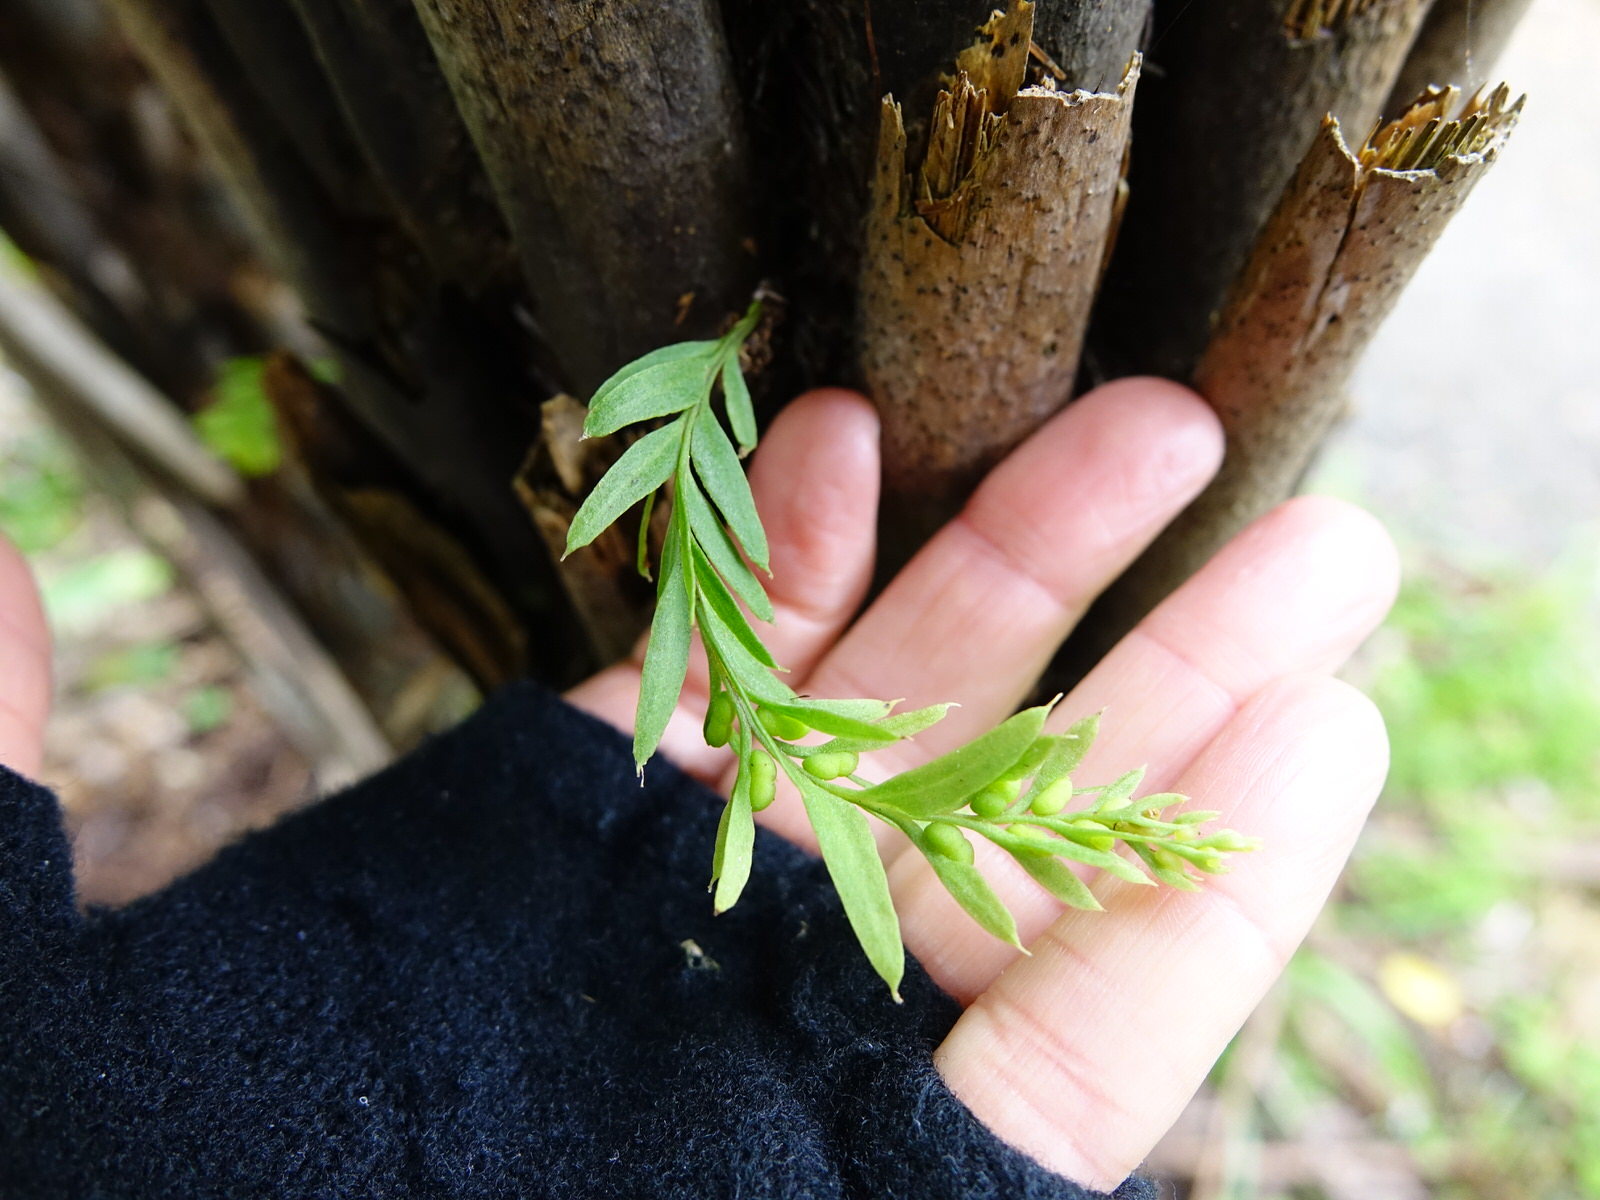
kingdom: Plantae
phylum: Tracheophyta
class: Polypodiopsida
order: Psilotales
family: Psilotaceae
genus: Tmesipteris
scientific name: Tmesipteris elongata
